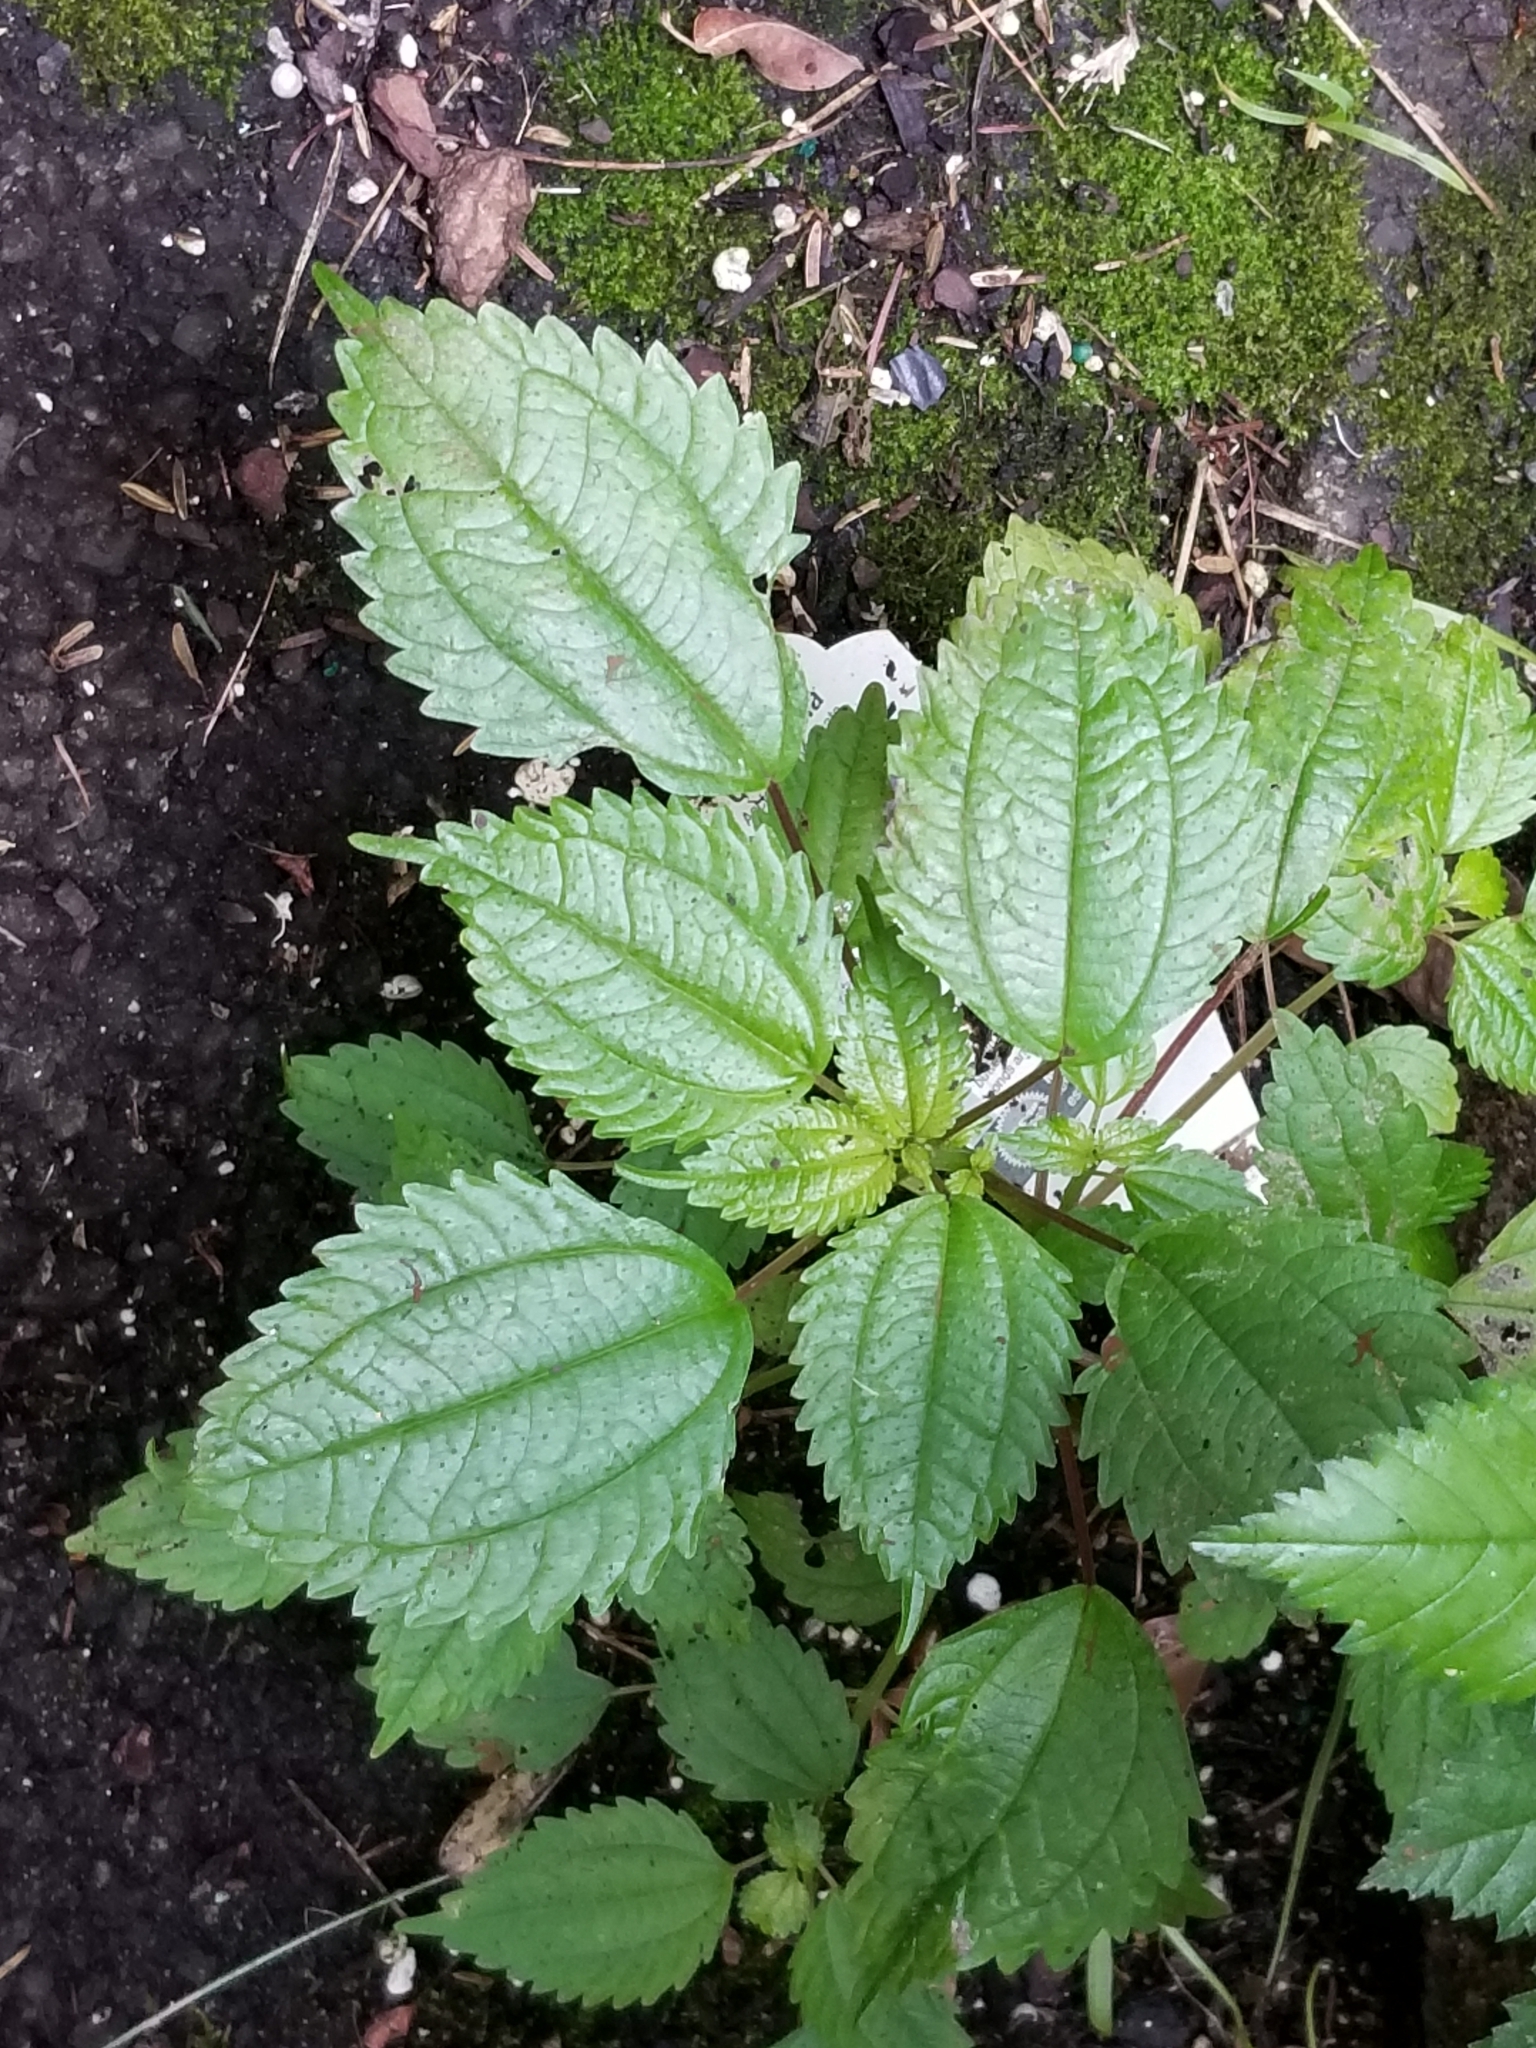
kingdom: Plantae
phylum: Tracheophyta
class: Magnoliopsida
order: Rosales
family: Urticaceae
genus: Pilea
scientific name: Pilea pumila
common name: Clearweed
